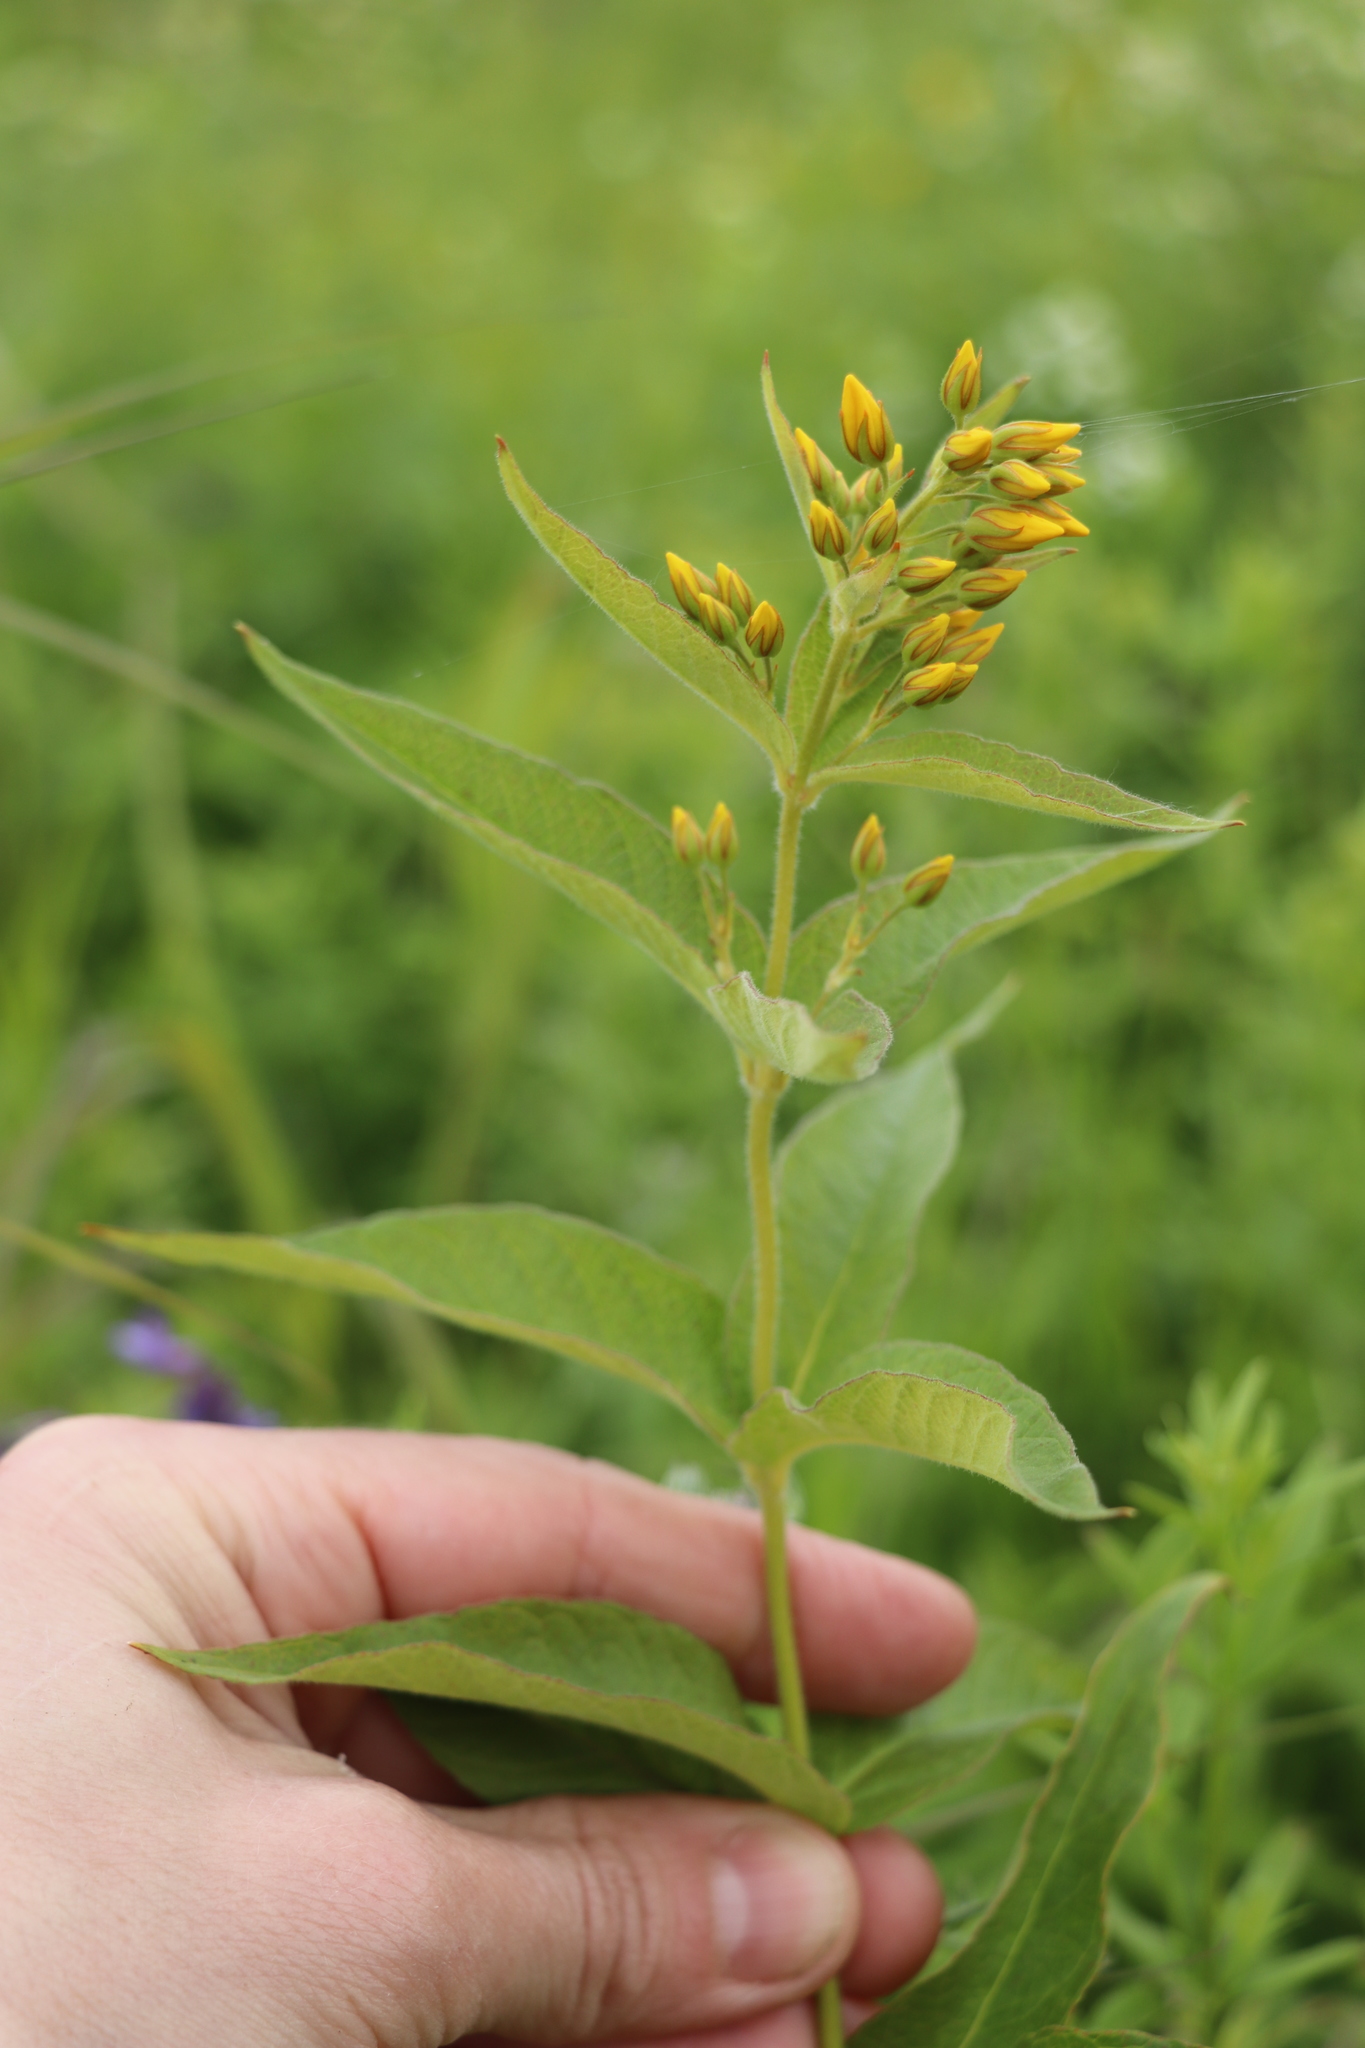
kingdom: Plantae
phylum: Tracheophyta
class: Magnoliopsida
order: Ericales
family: Primulaceae
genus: Lysimachia
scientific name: Lysimachia vulgaris
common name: Yellow loosestrife
